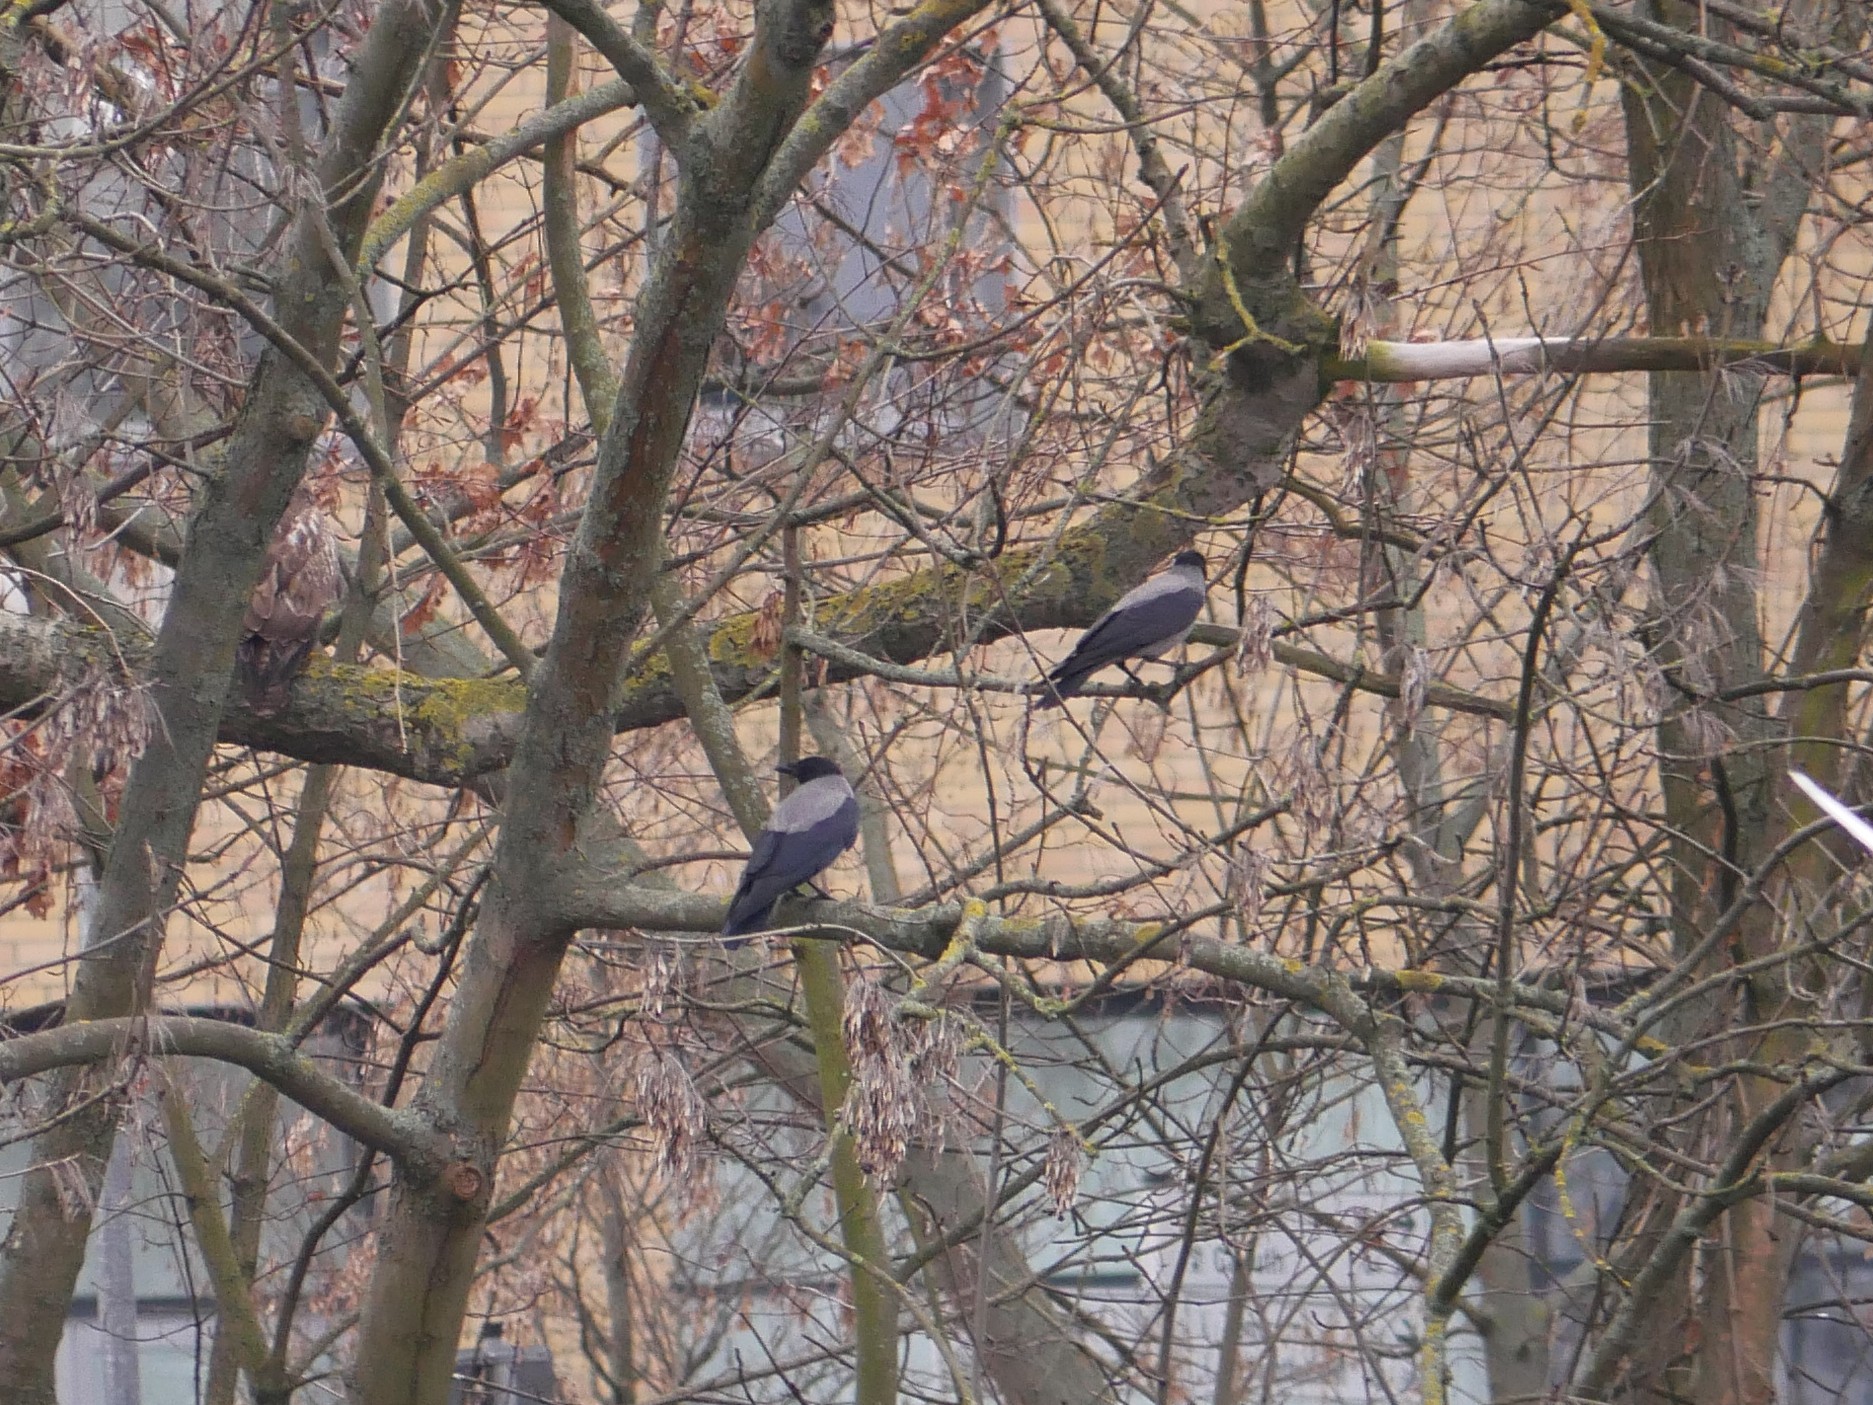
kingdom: Animalia
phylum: Chordata
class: Aves
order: Passeriformes
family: Corvidae
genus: Corvus
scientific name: Corvus cornix
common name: Hooded crow
